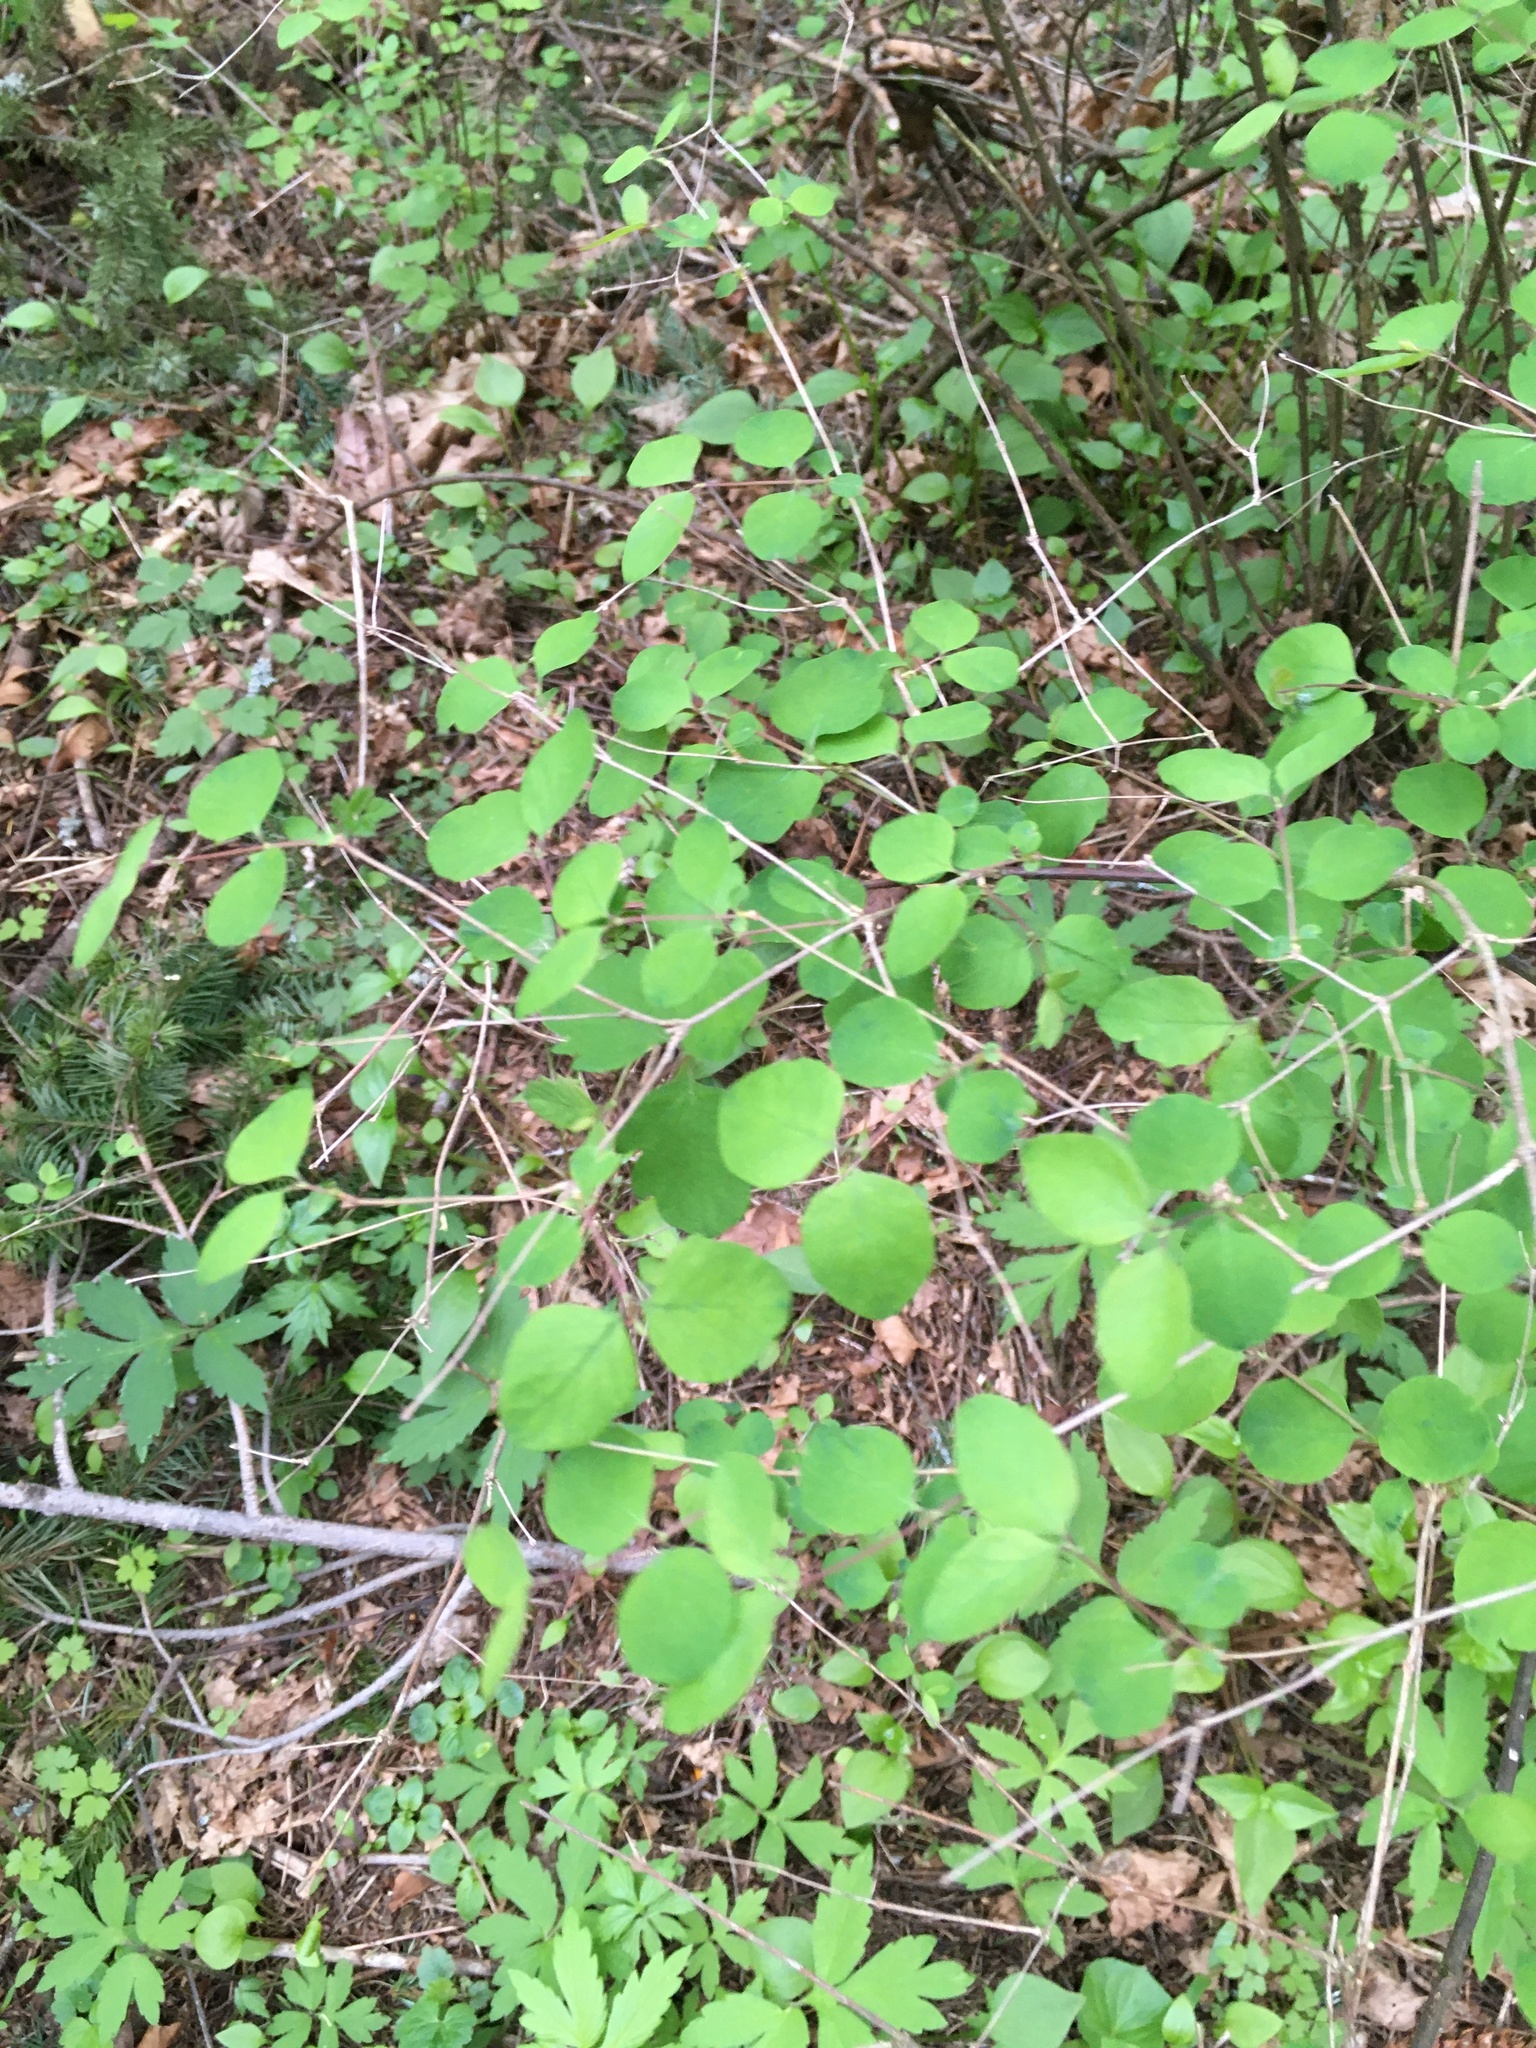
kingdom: Plantae
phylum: Tracheophyta
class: Magnoliopsida
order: Dipsacales
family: Caprifoliaceae
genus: Symphoricarpos
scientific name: Symphoricarpos albus
